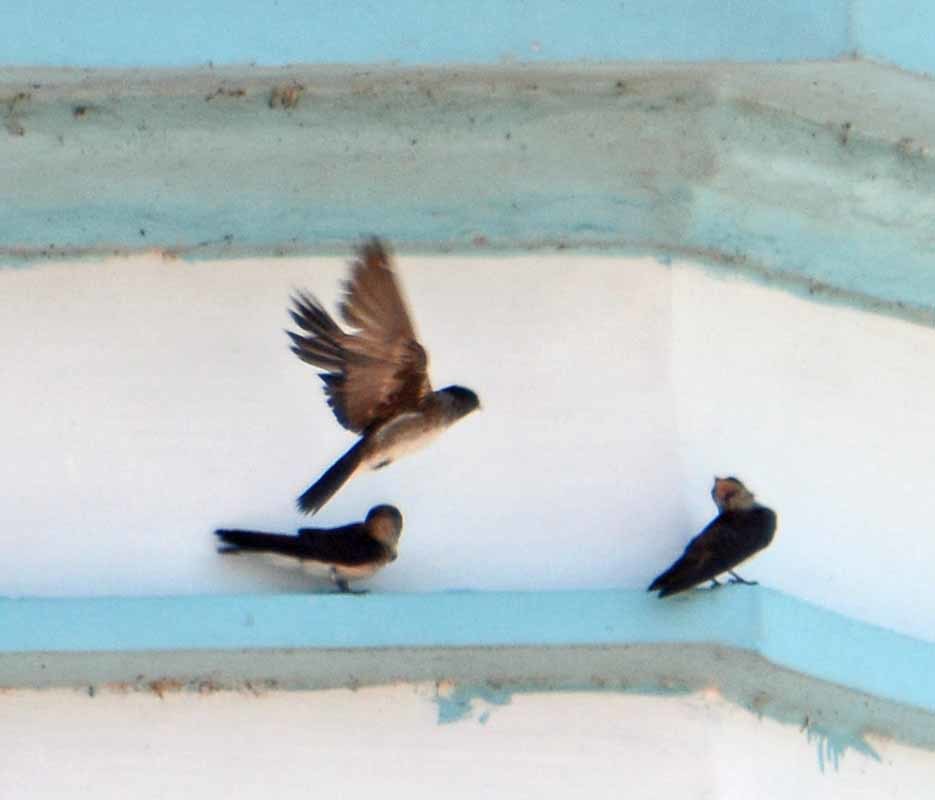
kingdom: Animalia
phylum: Chordata
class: Aves
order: Passeriformes
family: Hirundinidae
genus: Stelgidopteryx
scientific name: Stelgidopteryx serripennis
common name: Northern rough-winged swallow
